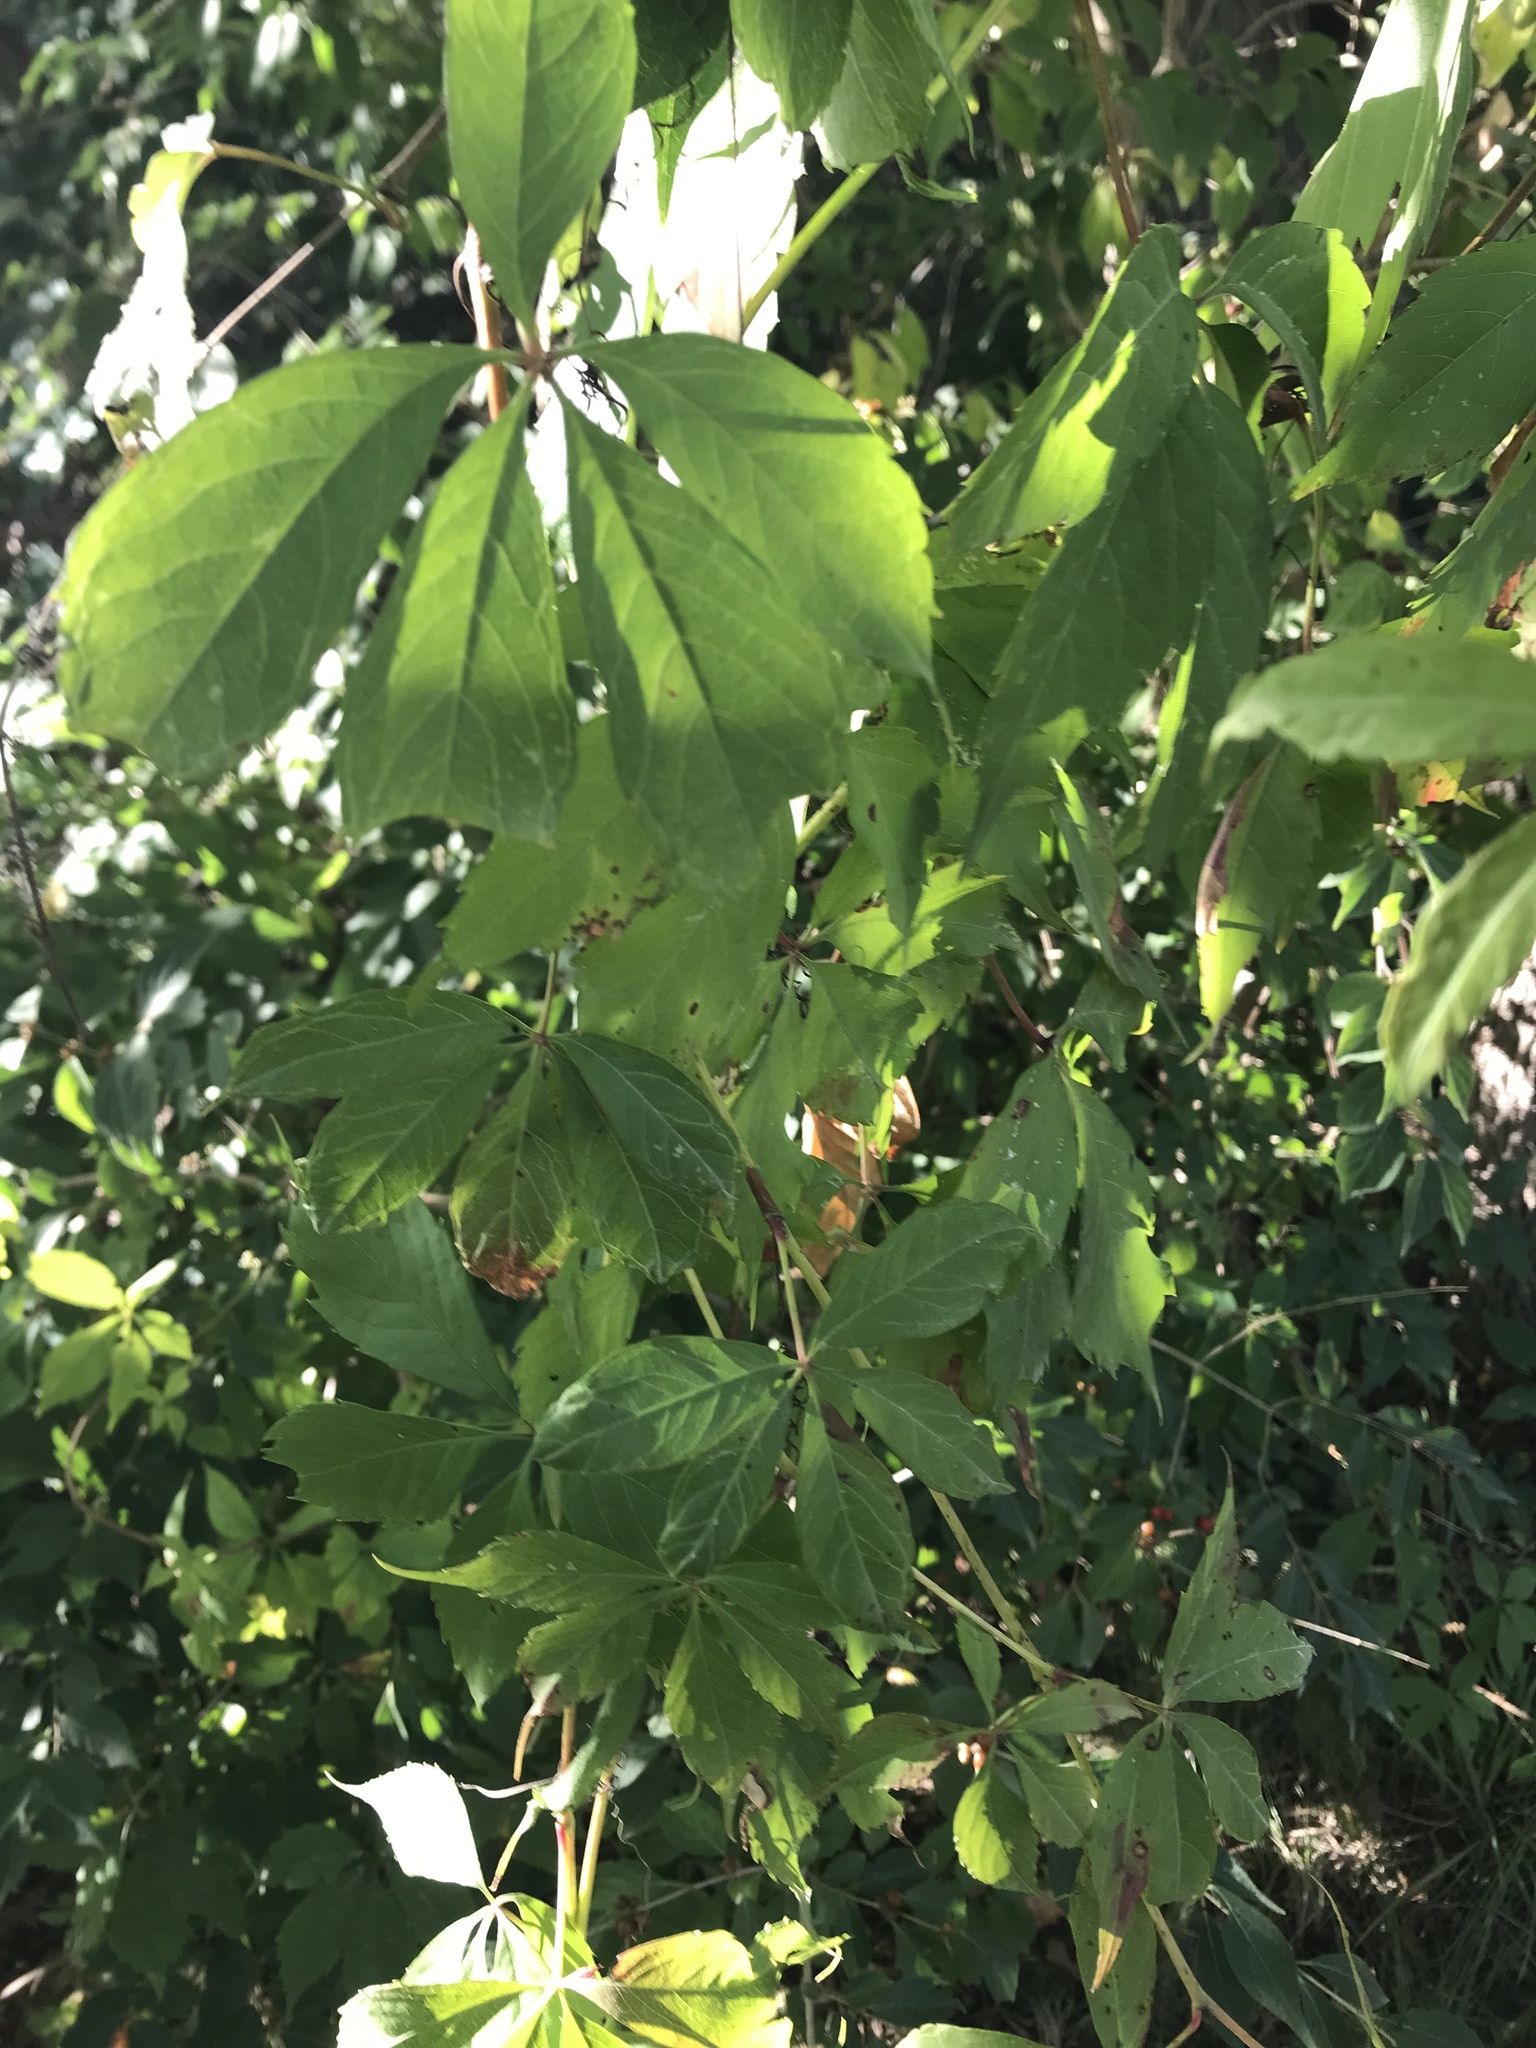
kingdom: Plantae
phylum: Tracheophyta
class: Magnoliopsida
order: Vitales
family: Vitaceae
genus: Parthenocissus
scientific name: Parthenocissus quinquefolia
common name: Virginia-creeper
